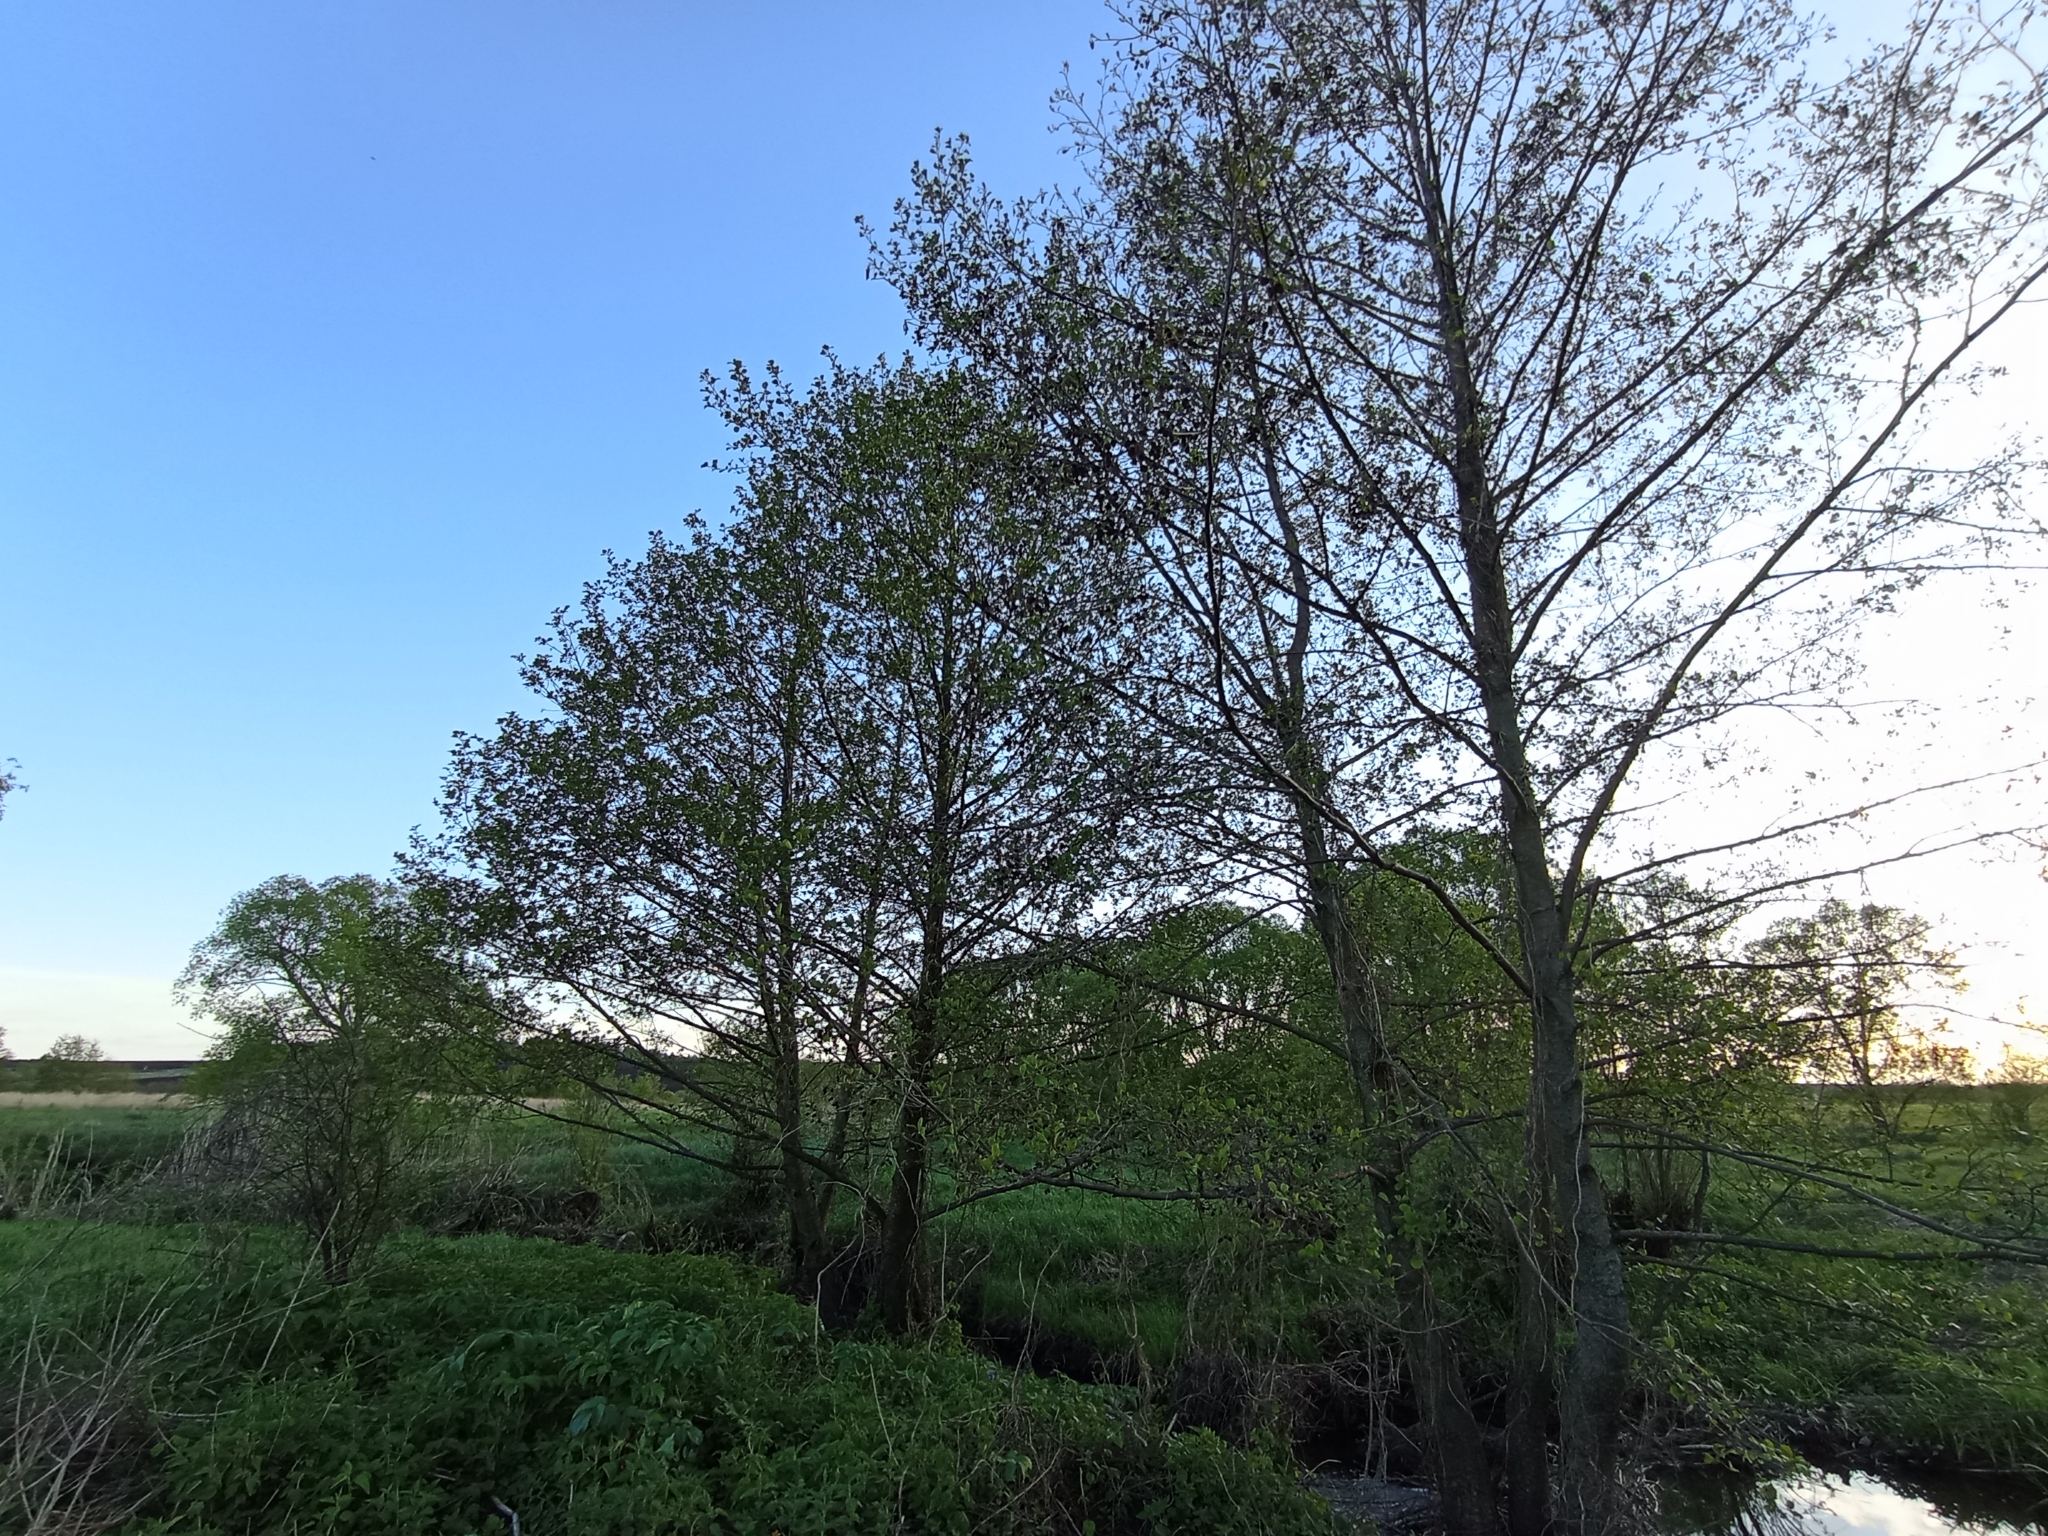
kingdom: Plantae
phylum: Tracheophyta
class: Magnoliopsida
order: Fagales
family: Betulaceae
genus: Alnus
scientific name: Alnus glutinosa
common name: Black alder
